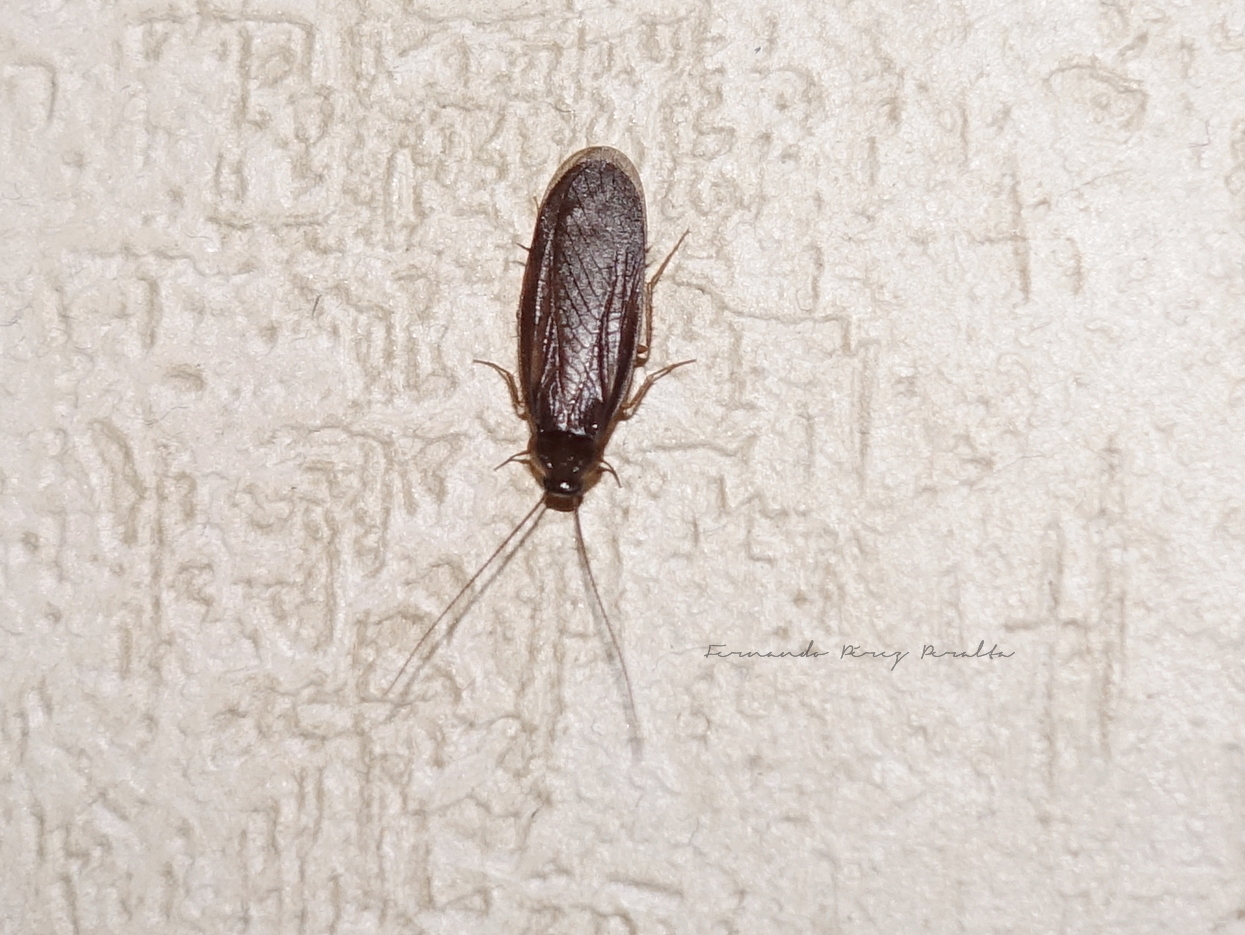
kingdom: Animalia
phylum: Arthropoda
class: Insecta
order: Blattodea
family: Corydiidae
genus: Latindia
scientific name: Latindia mexicanus
